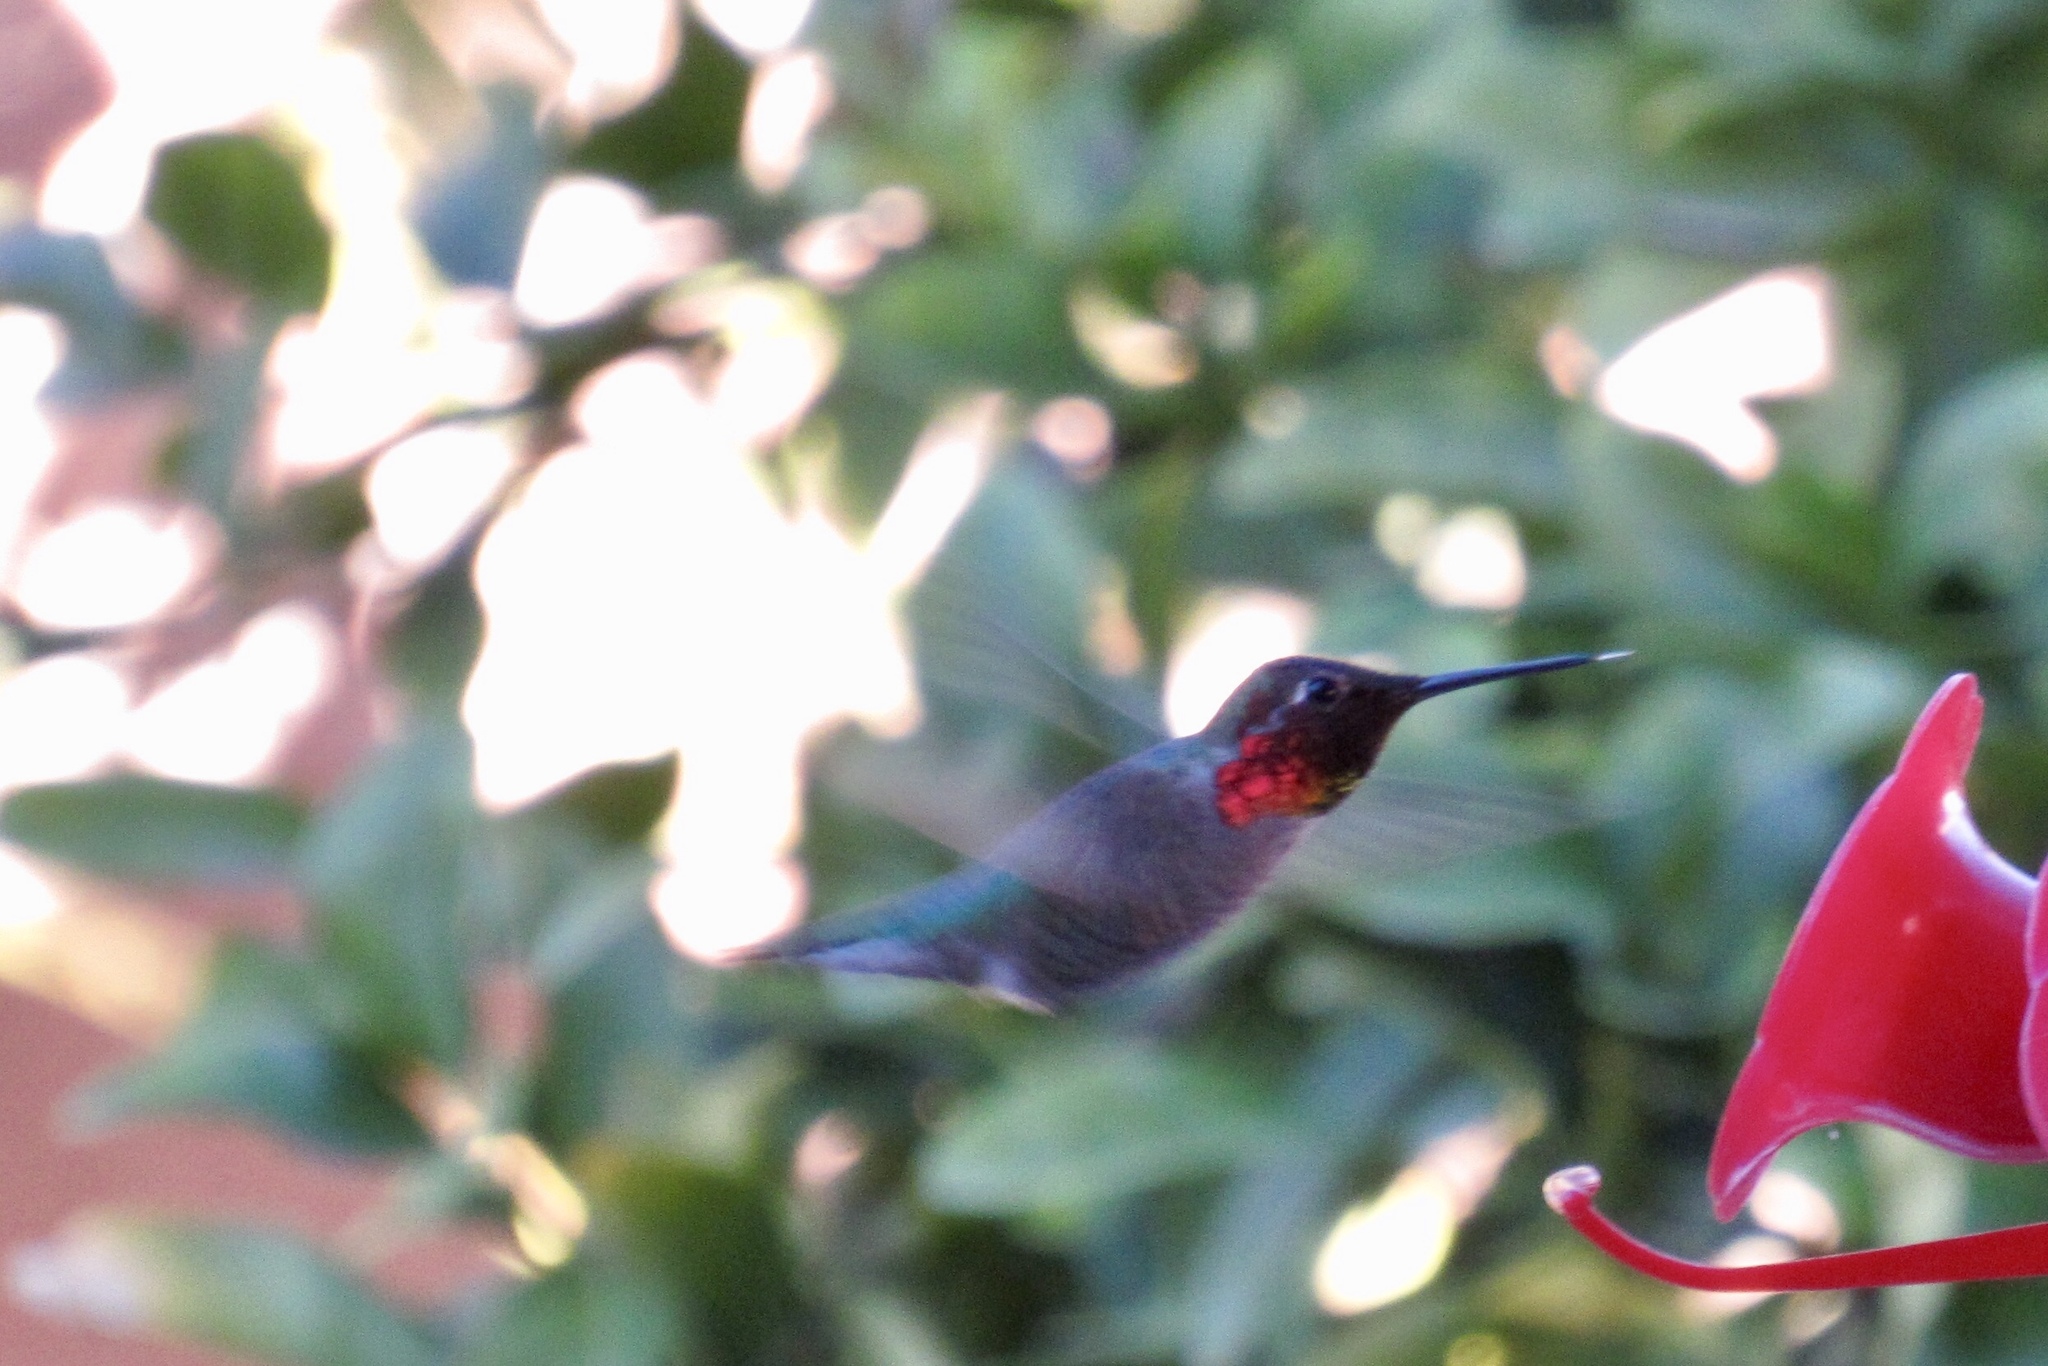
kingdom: Animalia
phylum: Chordata
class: Aves
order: Apodiformes
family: Trochilidae
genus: Calypte
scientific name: Calypte anna
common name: Anna's hummingbird
